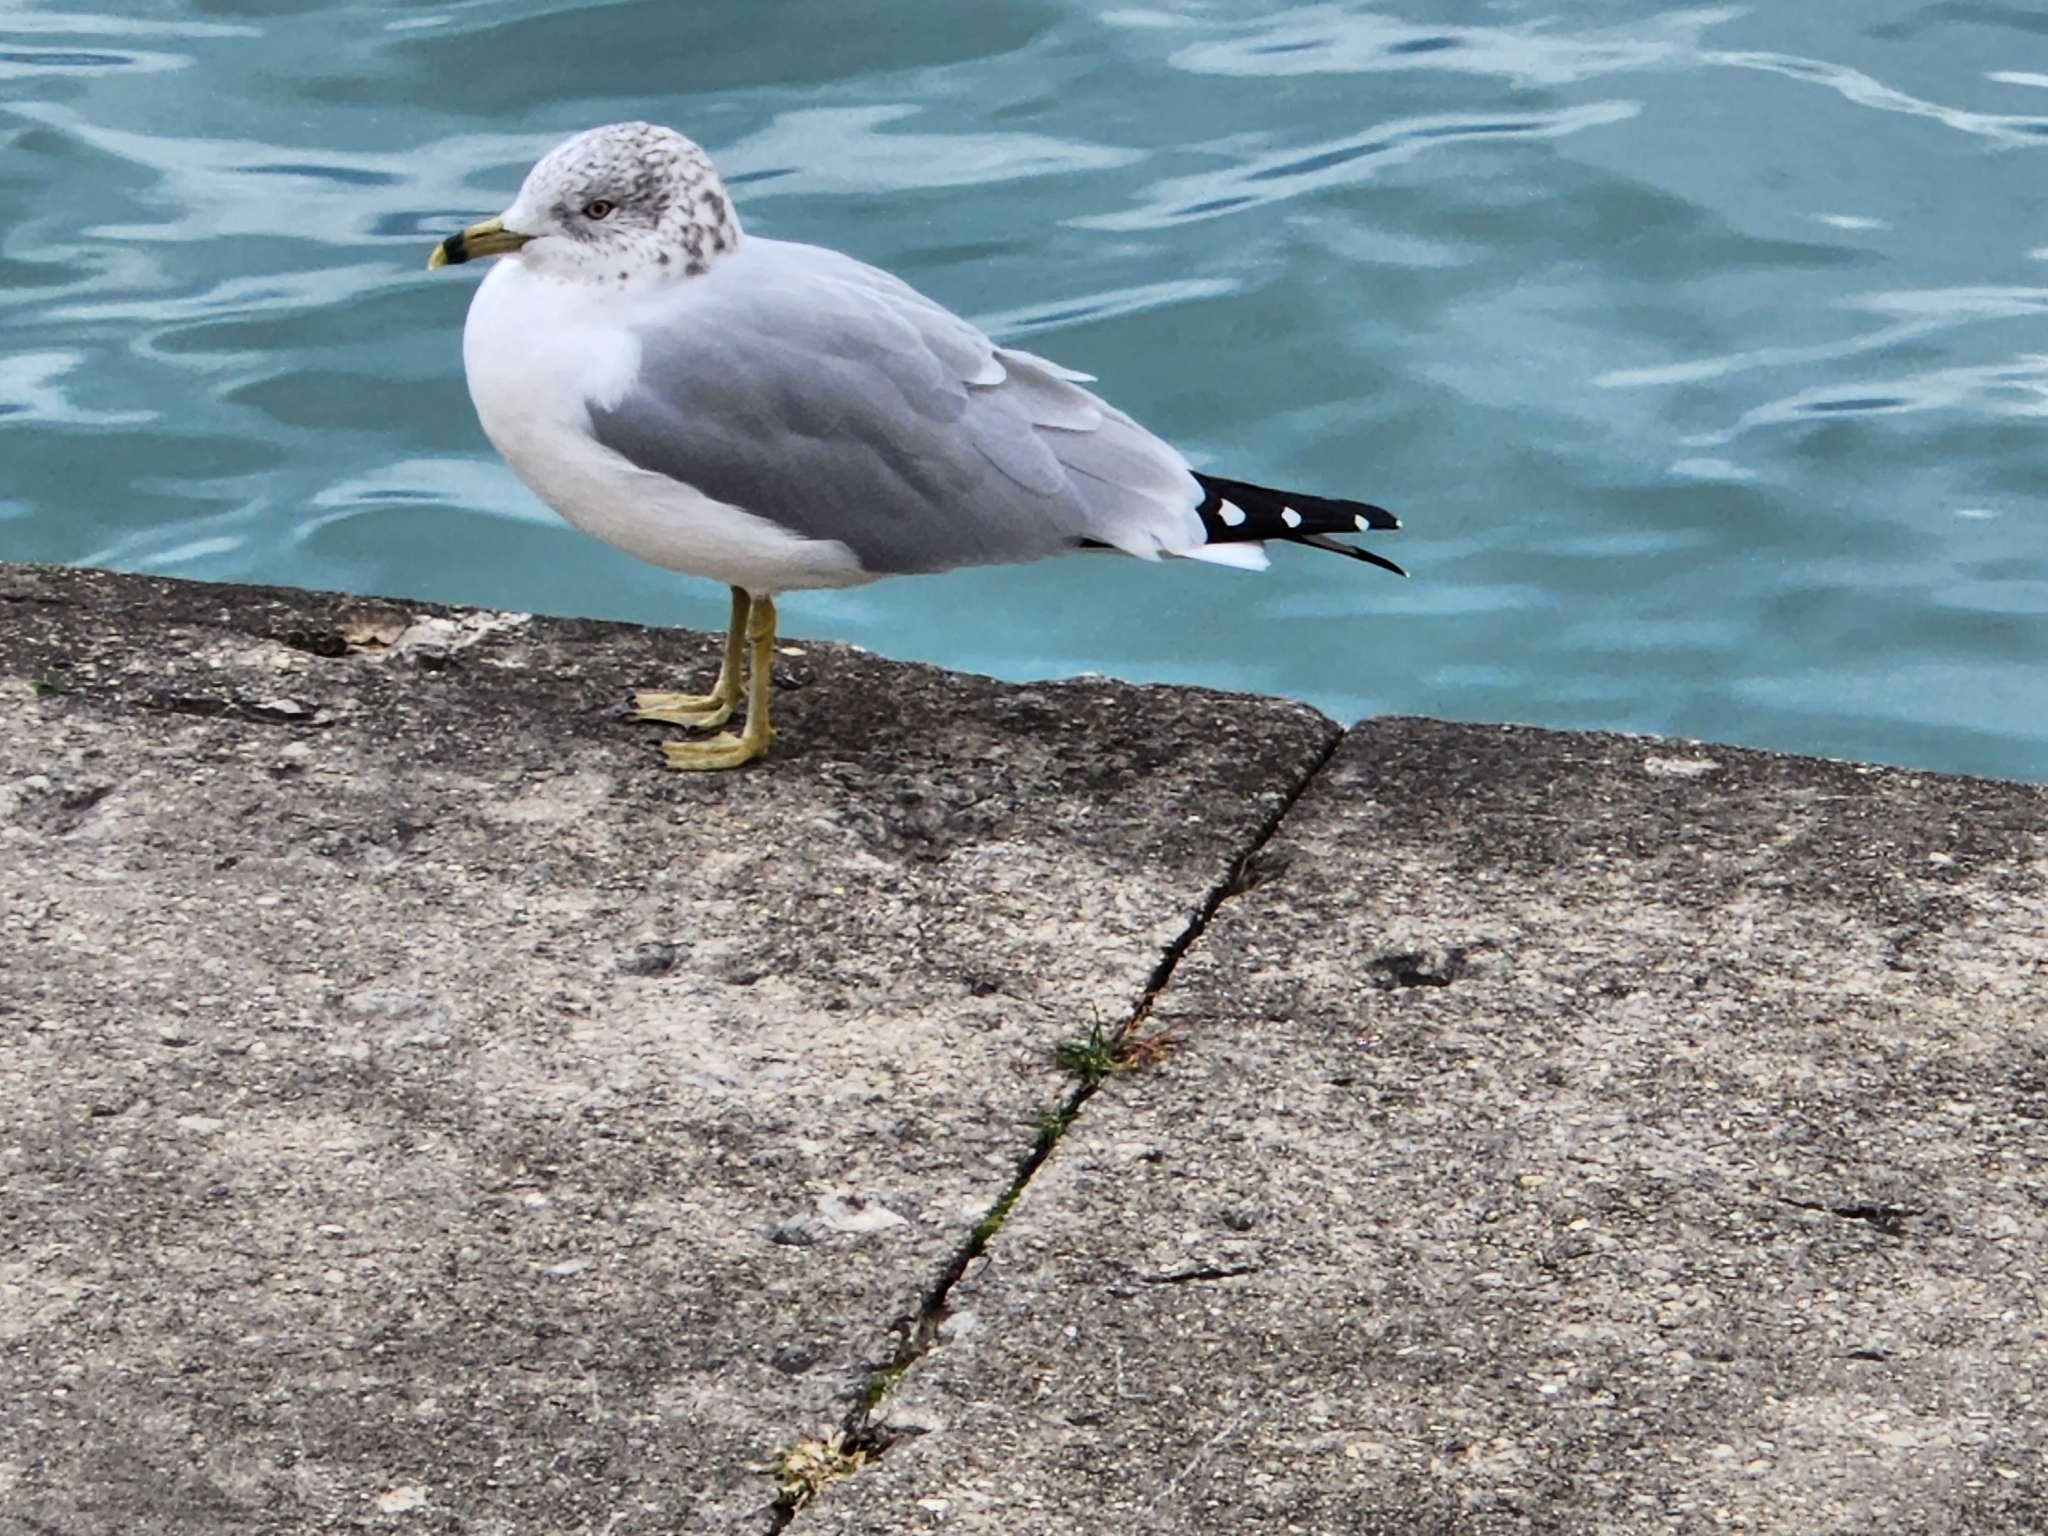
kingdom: Animalia
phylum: Chordata
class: Aves
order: Charadriiformes
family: Laridae
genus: Larus
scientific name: Larus delawarensis
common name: Ring-billed gull
